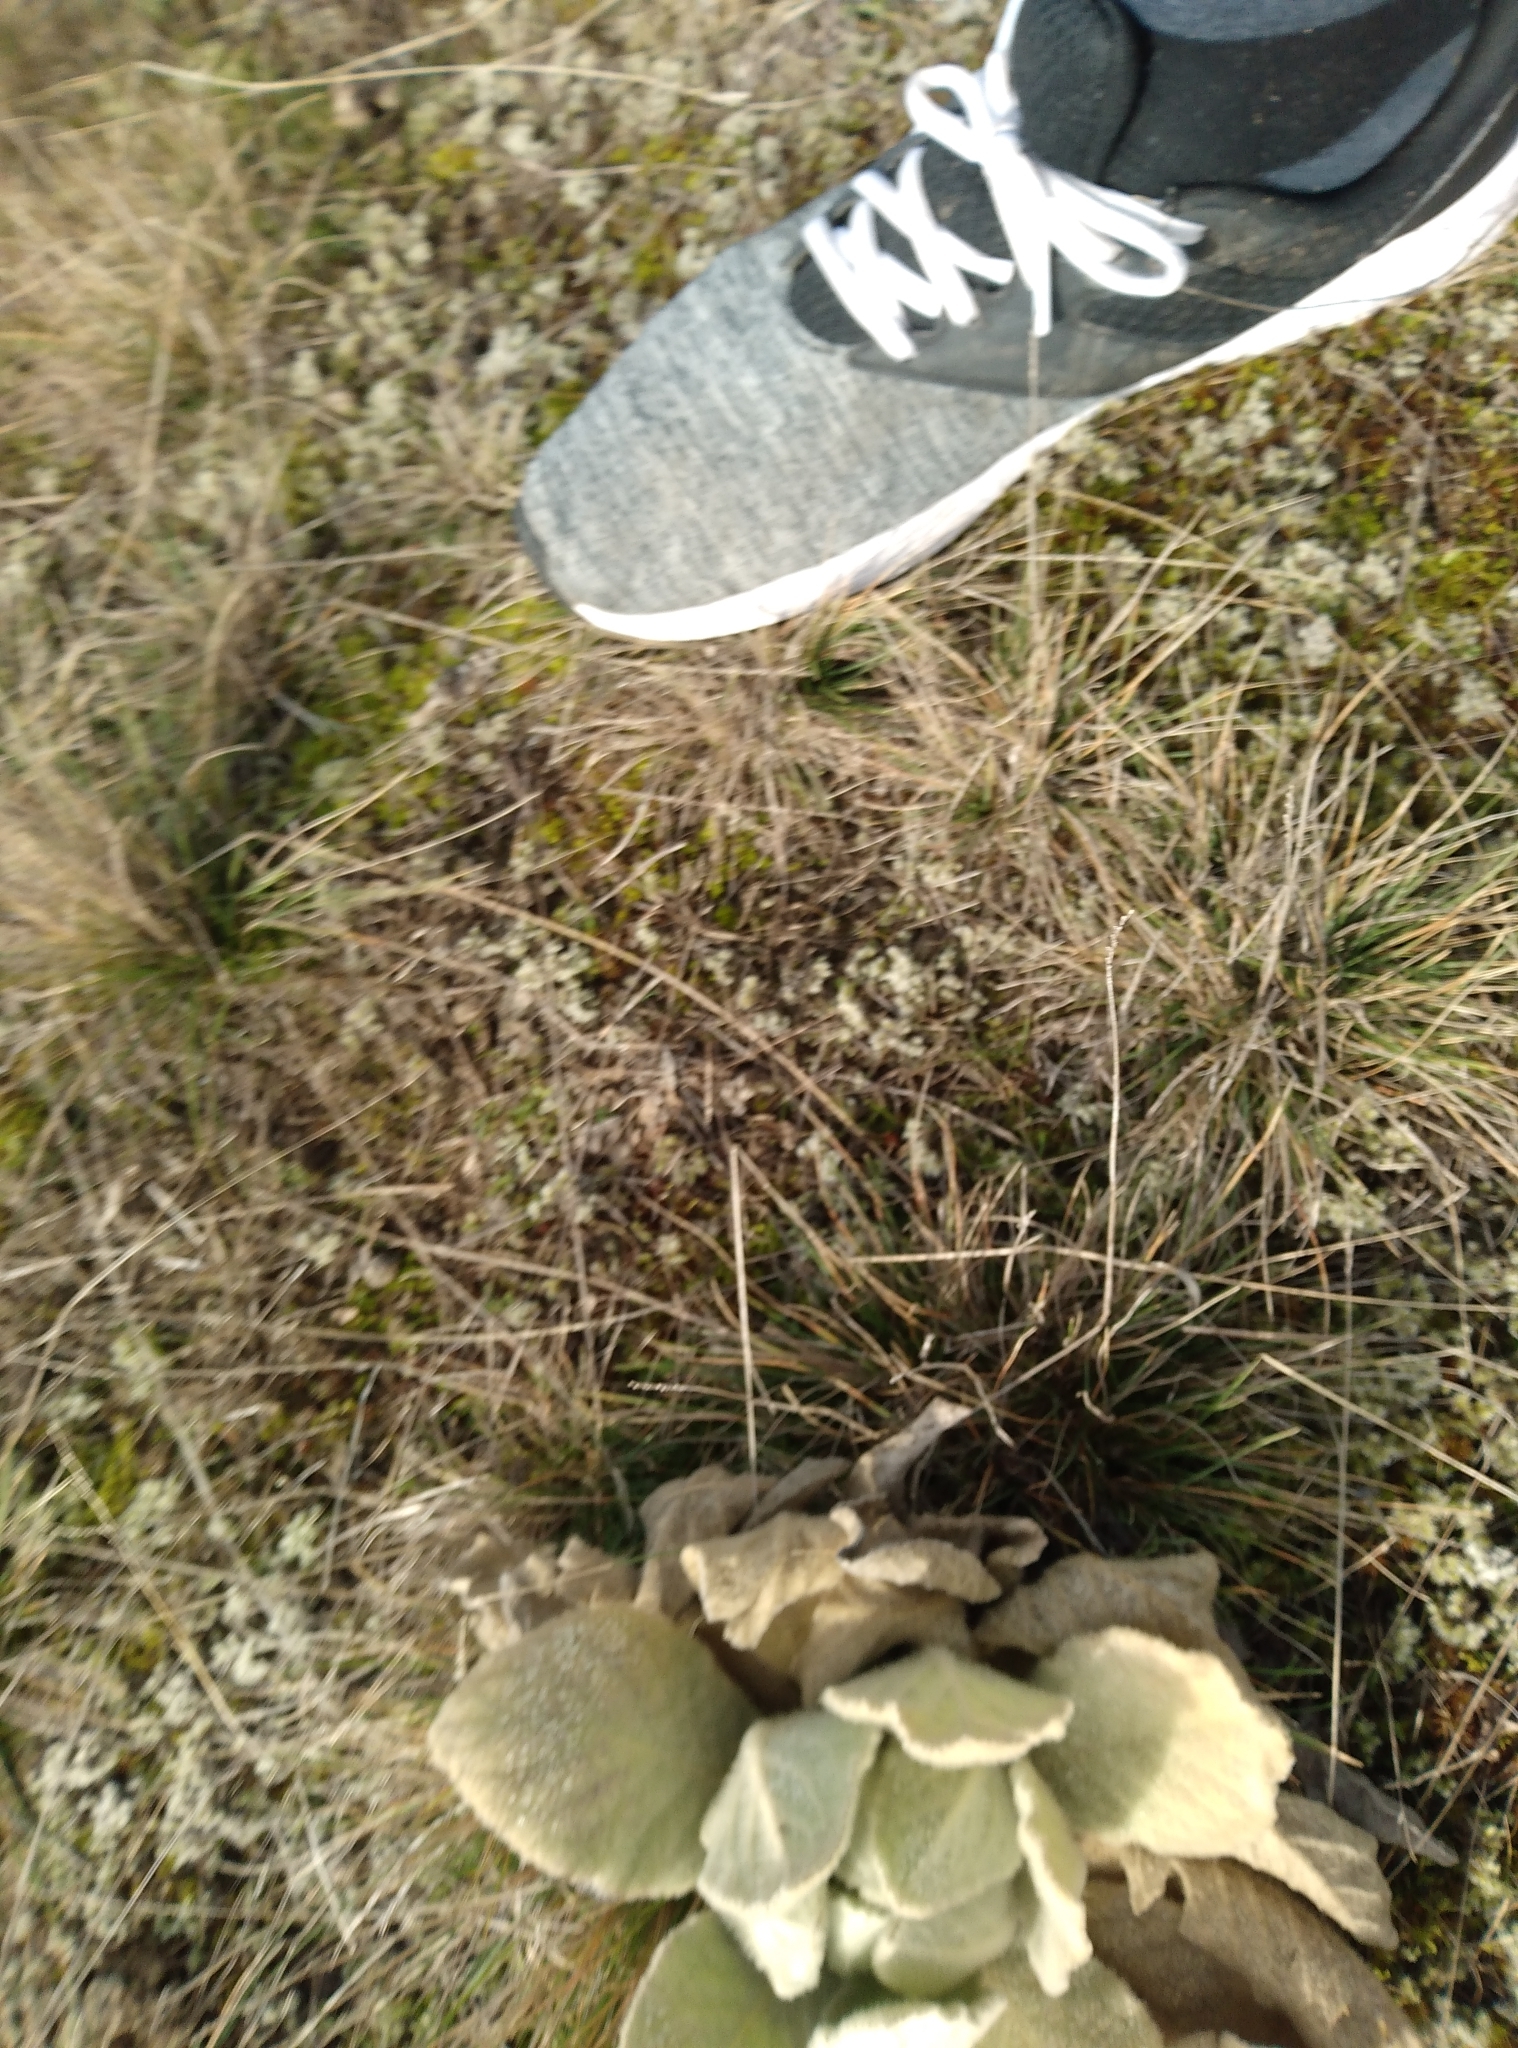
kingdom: Plantae
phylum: Tracheophyta
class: Magnoliopsida
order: Lamiales
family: Scrophulariaceae
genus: Verbascum
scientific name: Verbascum thapsus
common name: Common mullein
